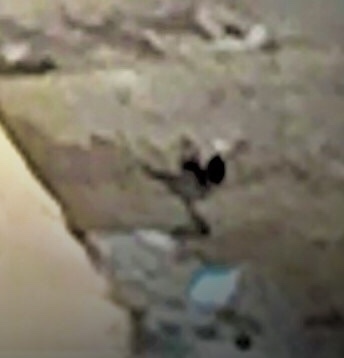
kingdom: Animalia
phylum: Chordata
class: Aves
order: Passeriformes
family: Motacillidae
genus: Motacilla
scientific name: Motacilla alba
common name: White wagtail
